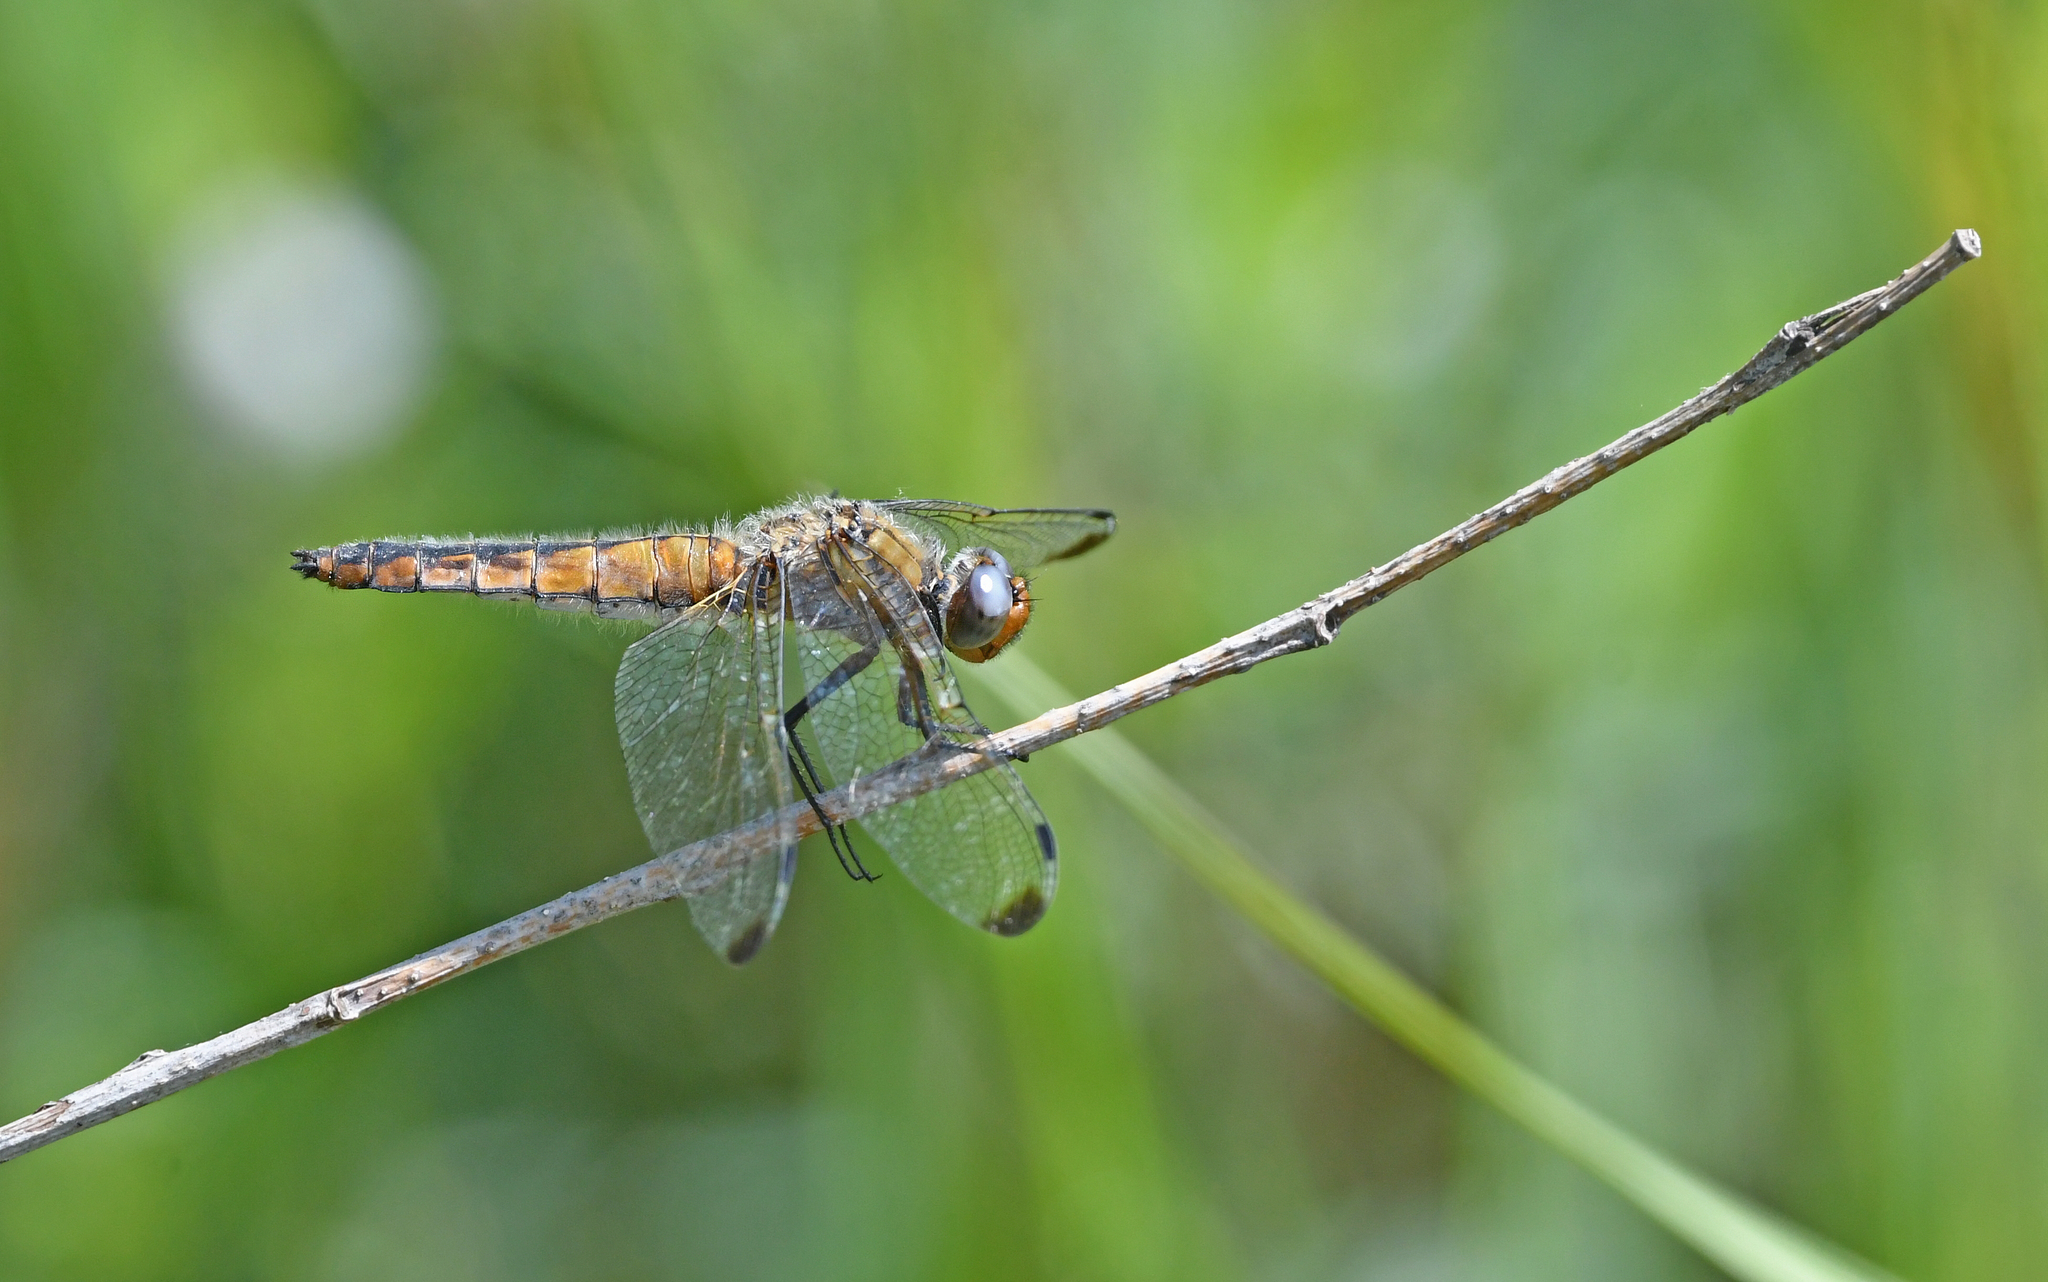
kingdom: Animalia
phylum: Arthropoda
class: Insecta
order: Odonata
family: Libellulidae
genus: Libellula
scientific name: Libellula fulva
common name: Blue chaser
